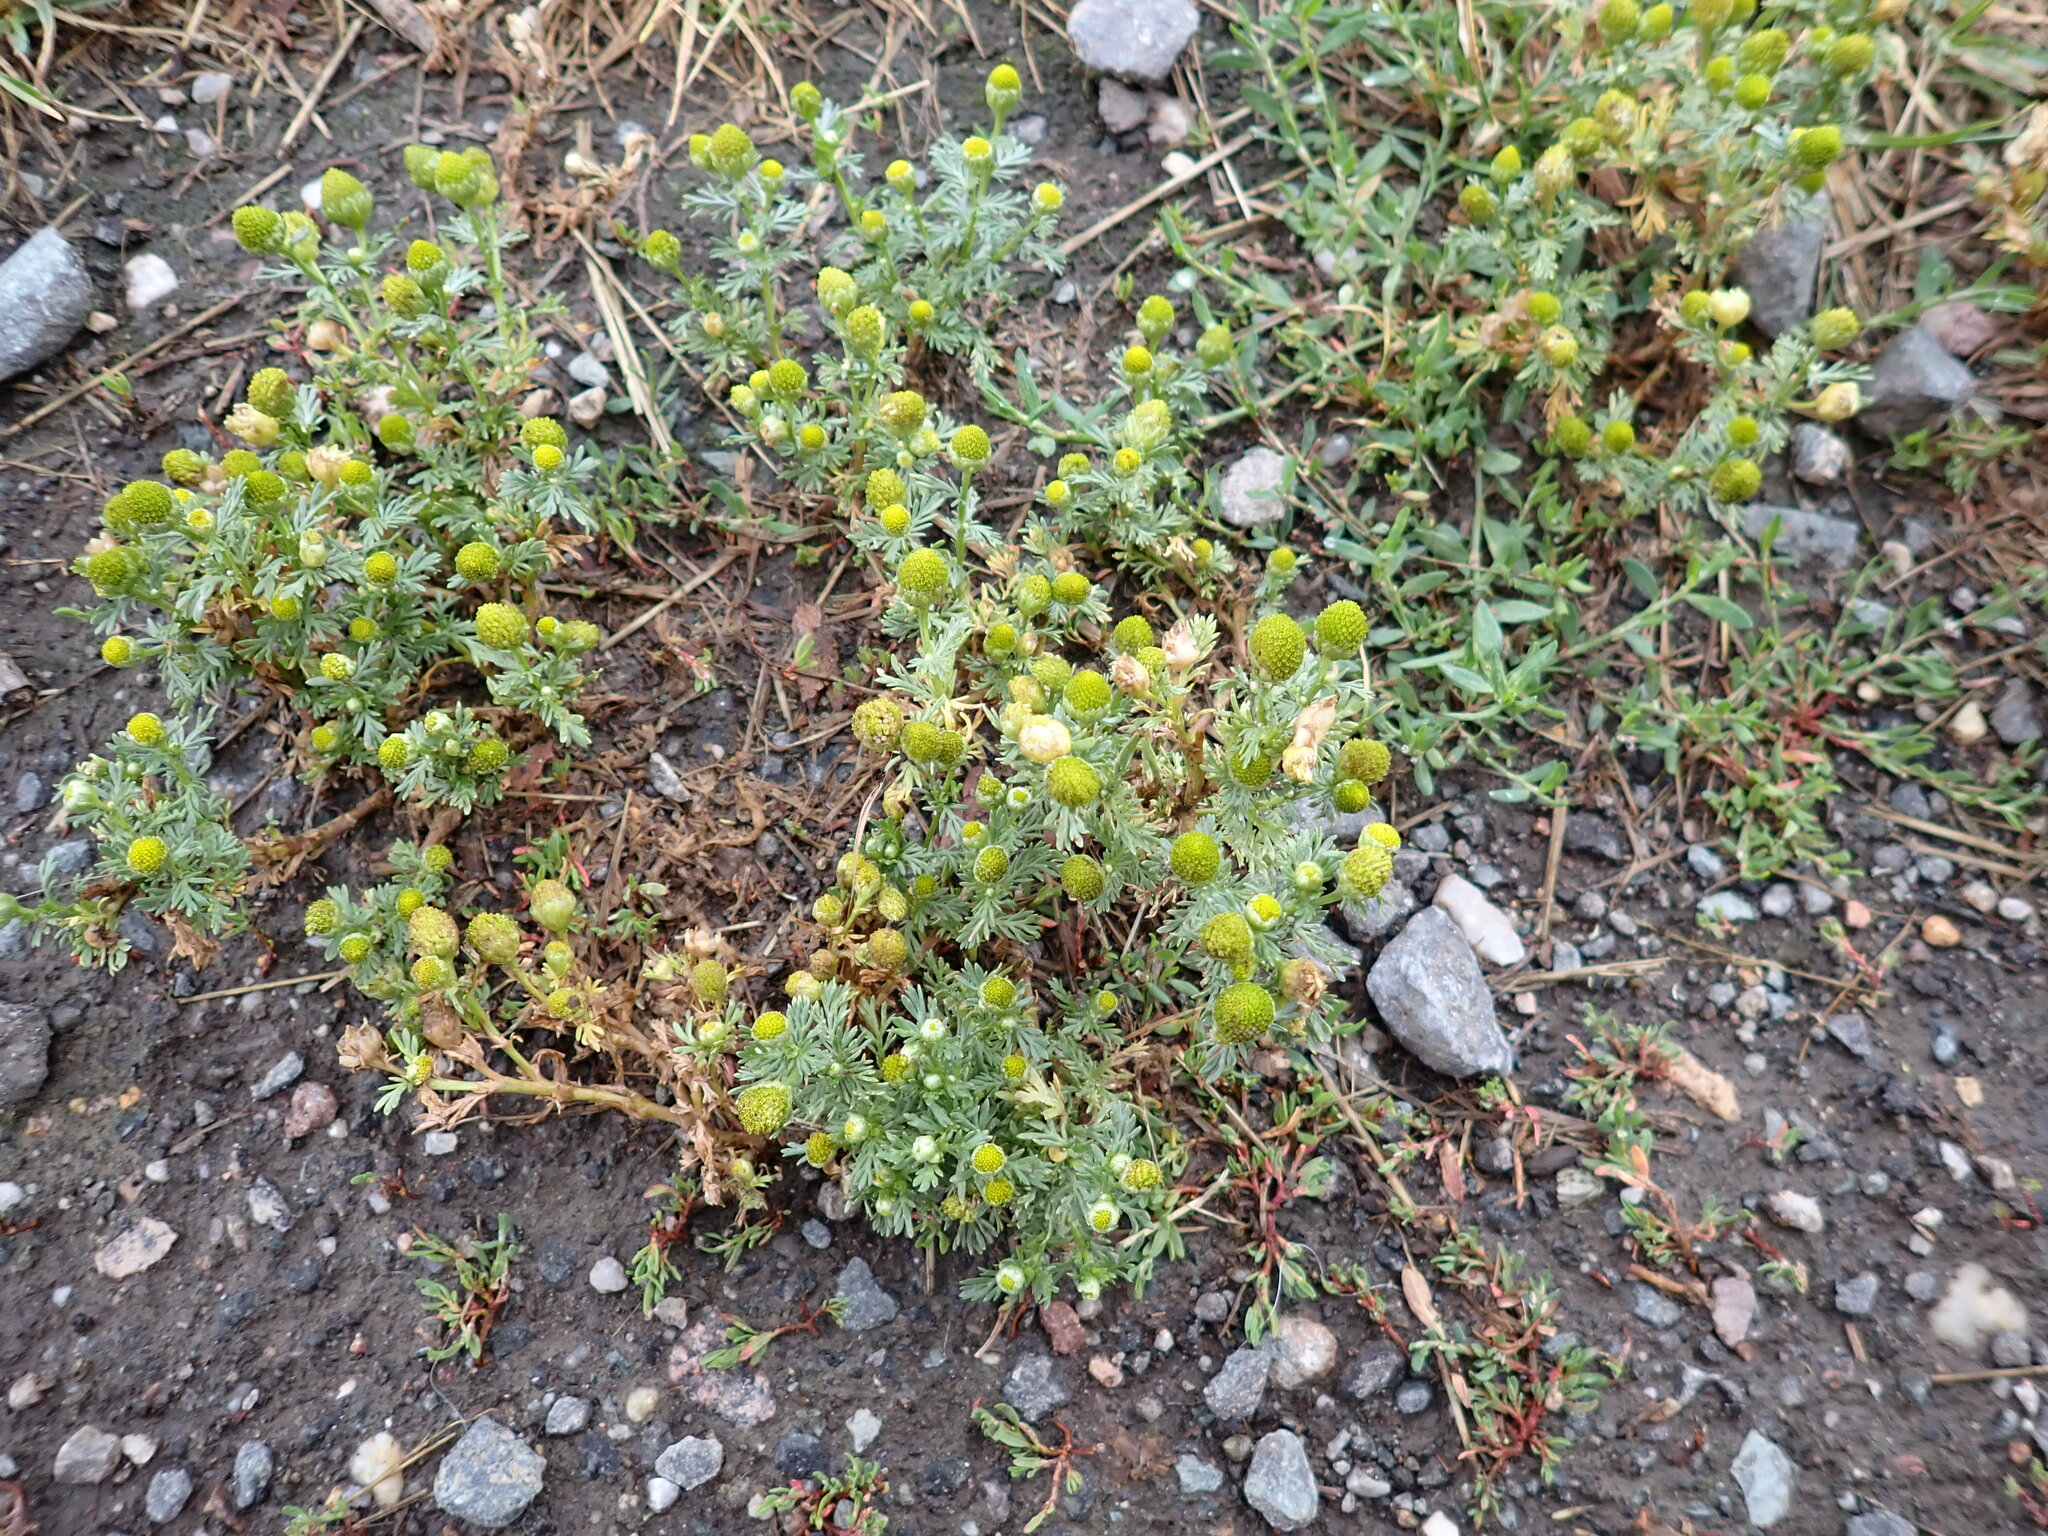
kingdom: Plantae
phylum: Tracheophyta
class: Magnoliopsida
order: Asterales
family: Asteraceae
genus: Matricaria
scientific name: Matricaria discoidea
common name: Disc mayweed
